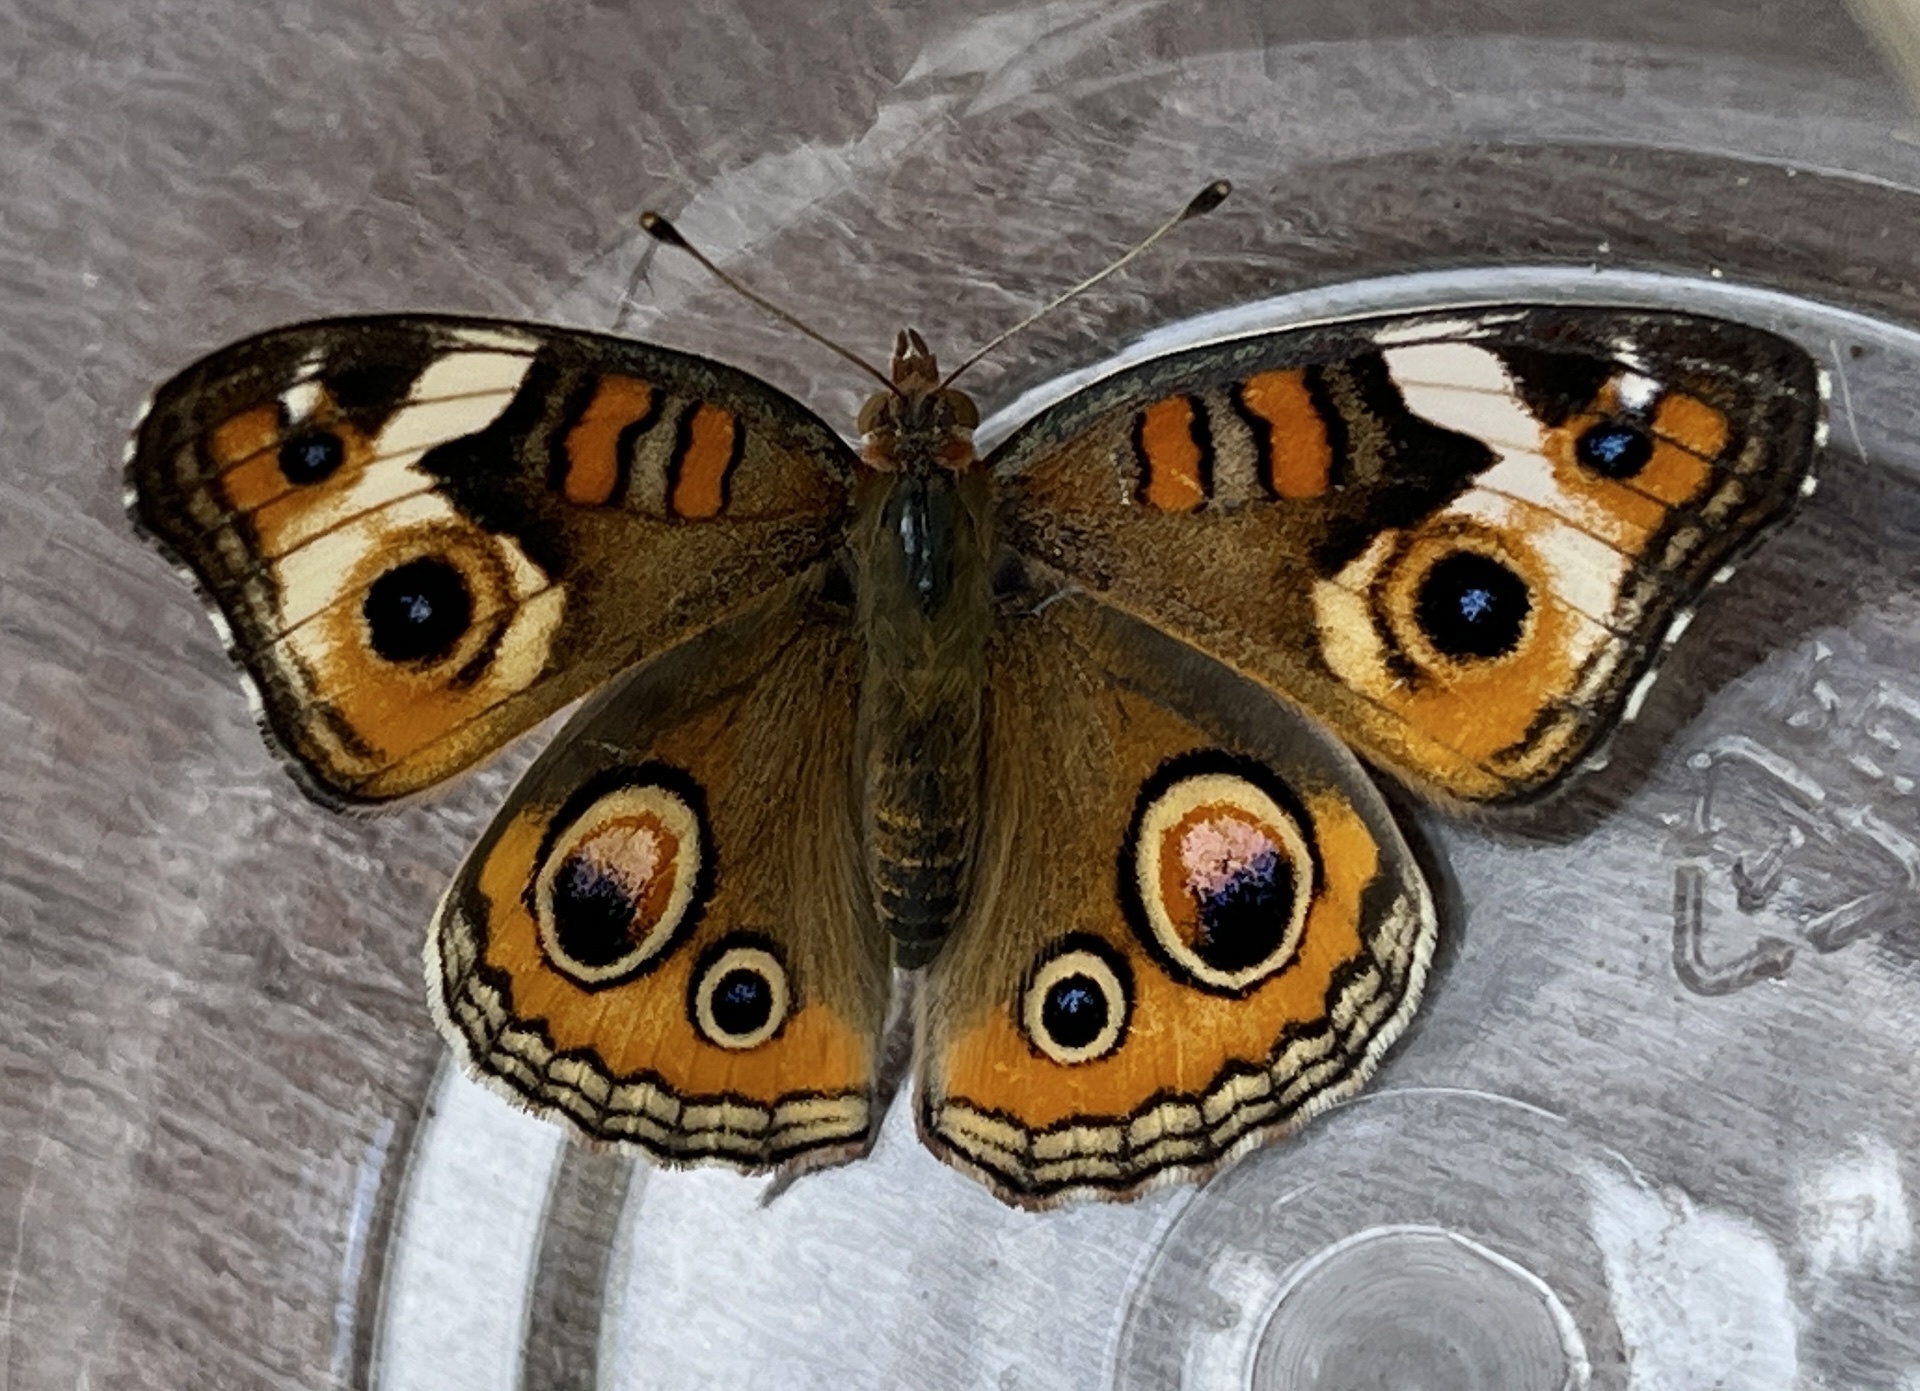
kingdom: Animalia
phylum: Arthropoda
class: Insecta
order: Lepidoptera
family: Nymphalidae
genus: Junonia
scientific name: Junonia coenia
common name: Common buckeye
